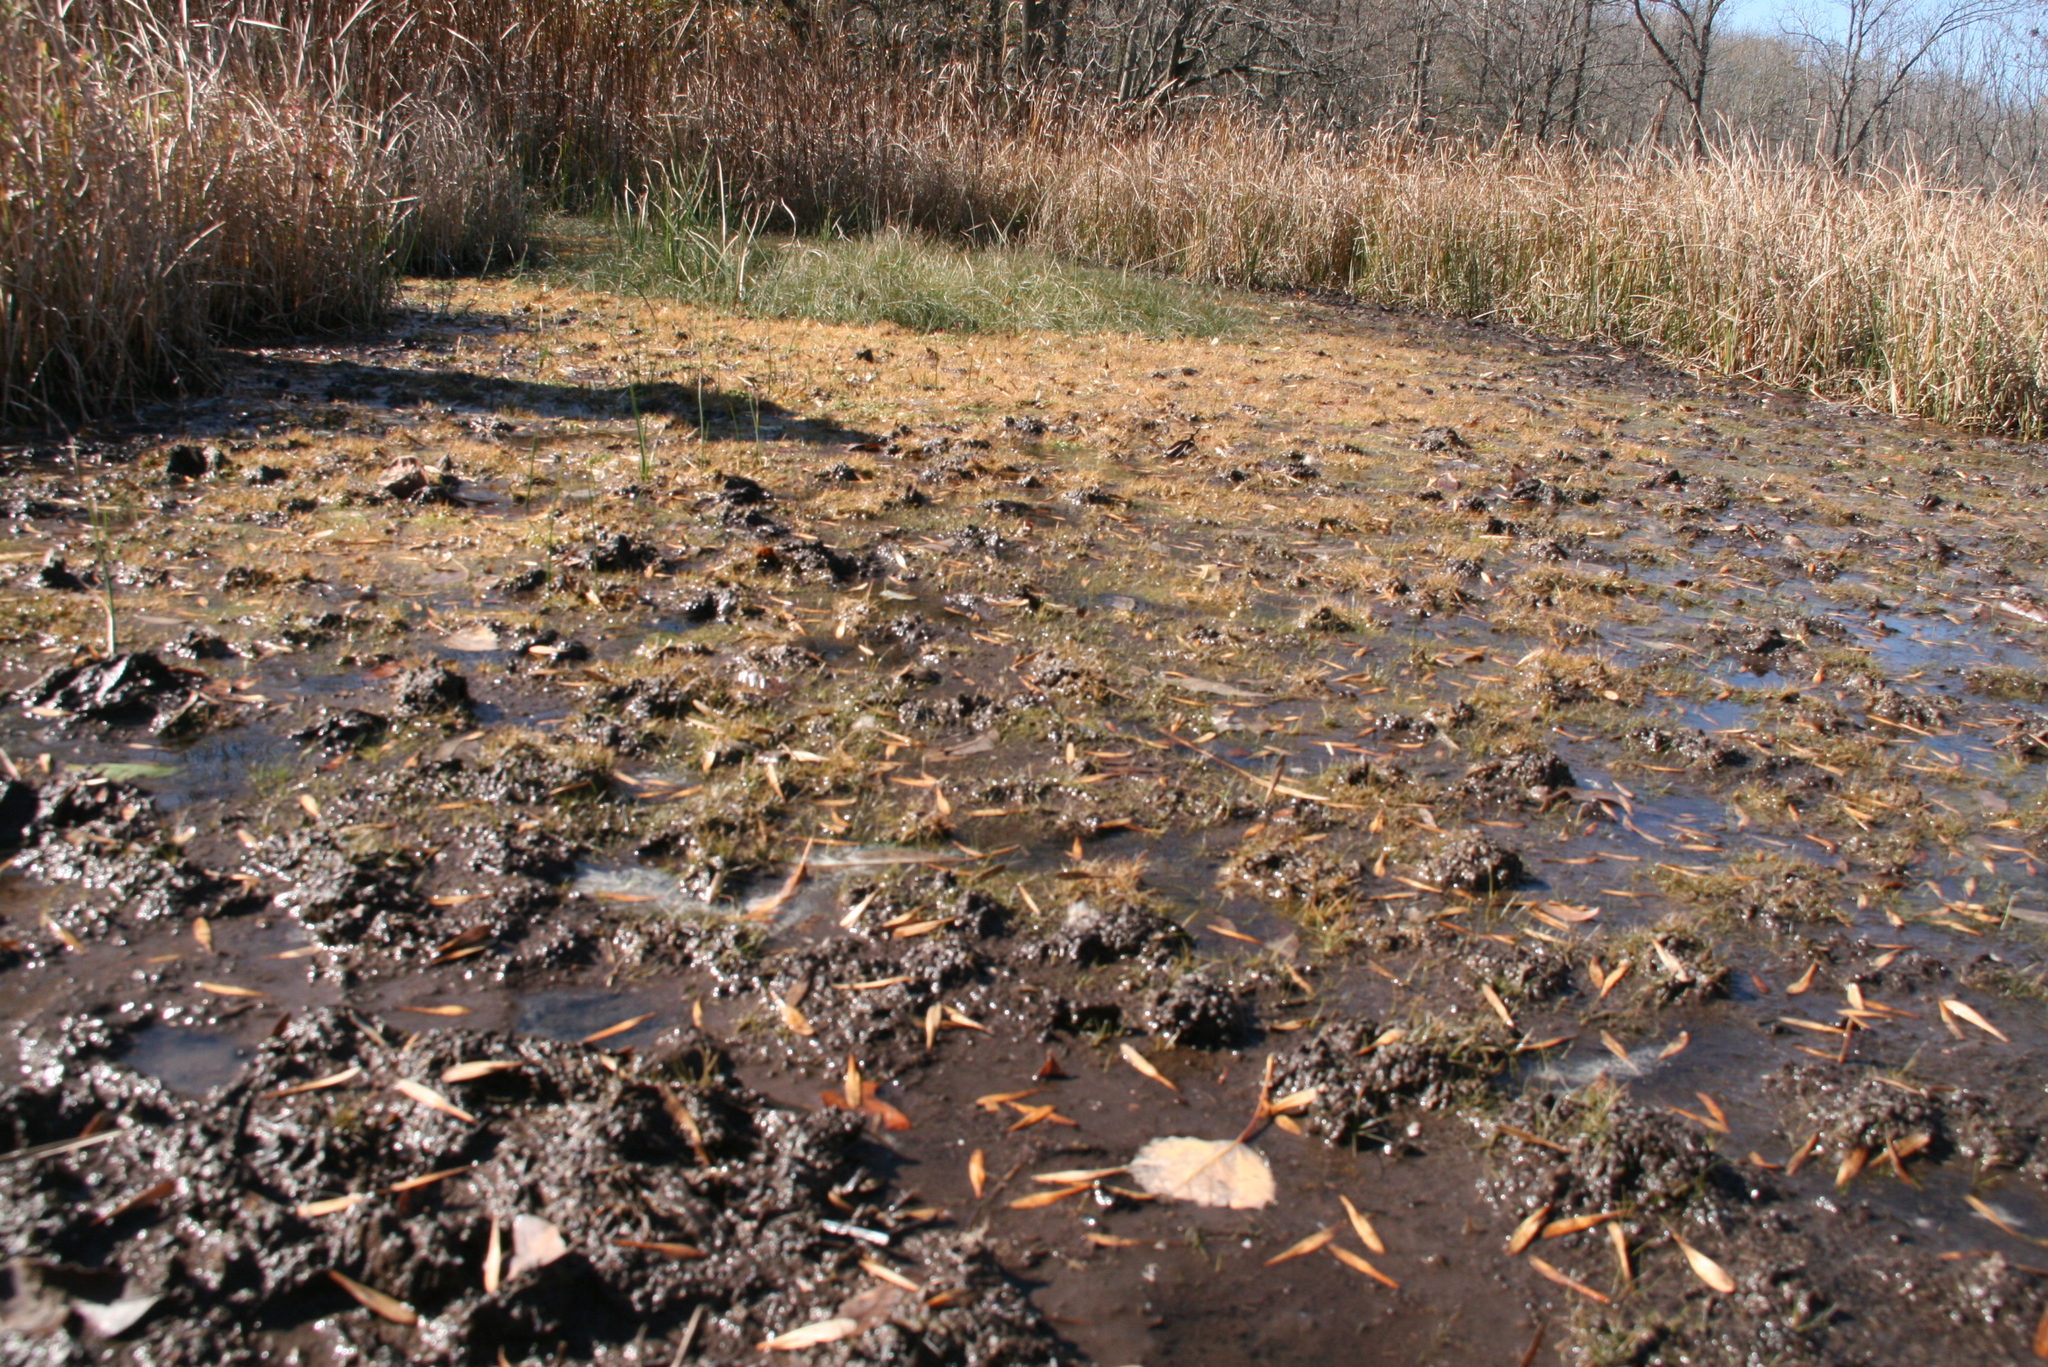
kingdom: Plantae
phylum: Tracheophyta
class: Liliopsida
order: Poales
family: Cyperaceae
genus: Eleocharis
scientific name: Eleocharis parvula
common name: Dwarf spike-rush
